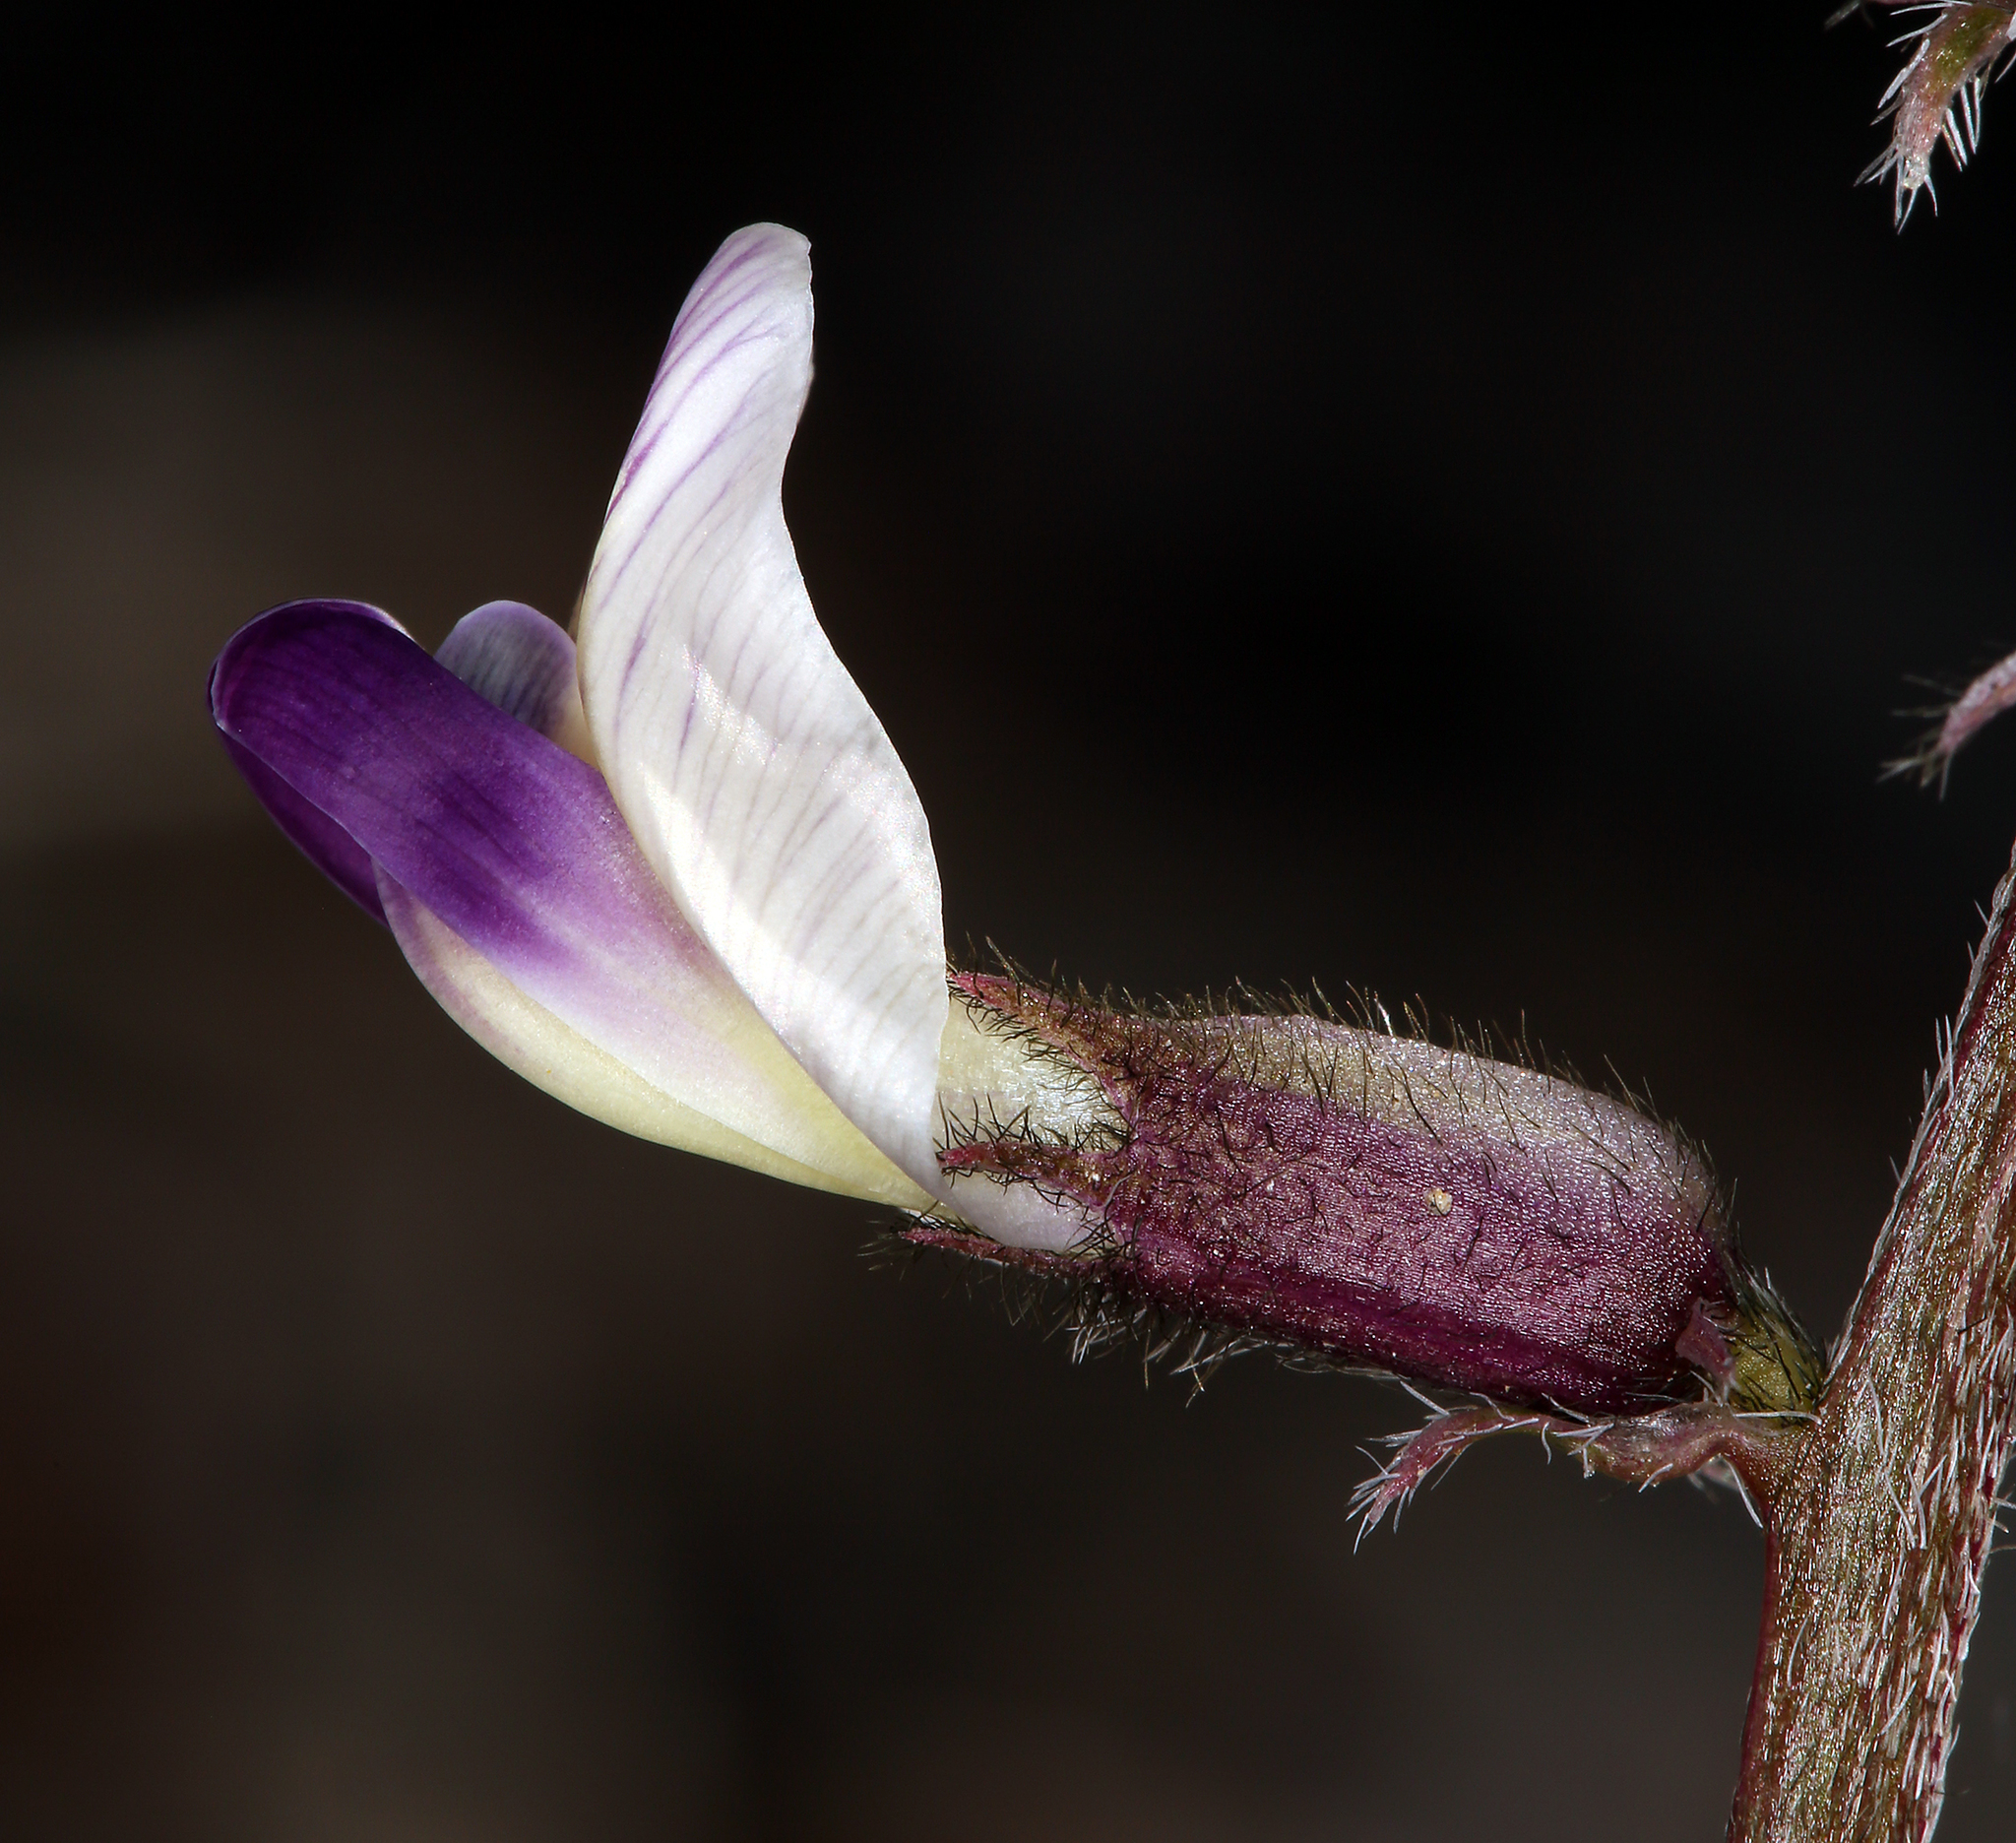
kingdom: Plantae
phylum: Tracheophyta
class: Magnoliopsida
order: Fabales
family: Fabaceae
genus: Astragalus
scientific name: Astragalus layneae
